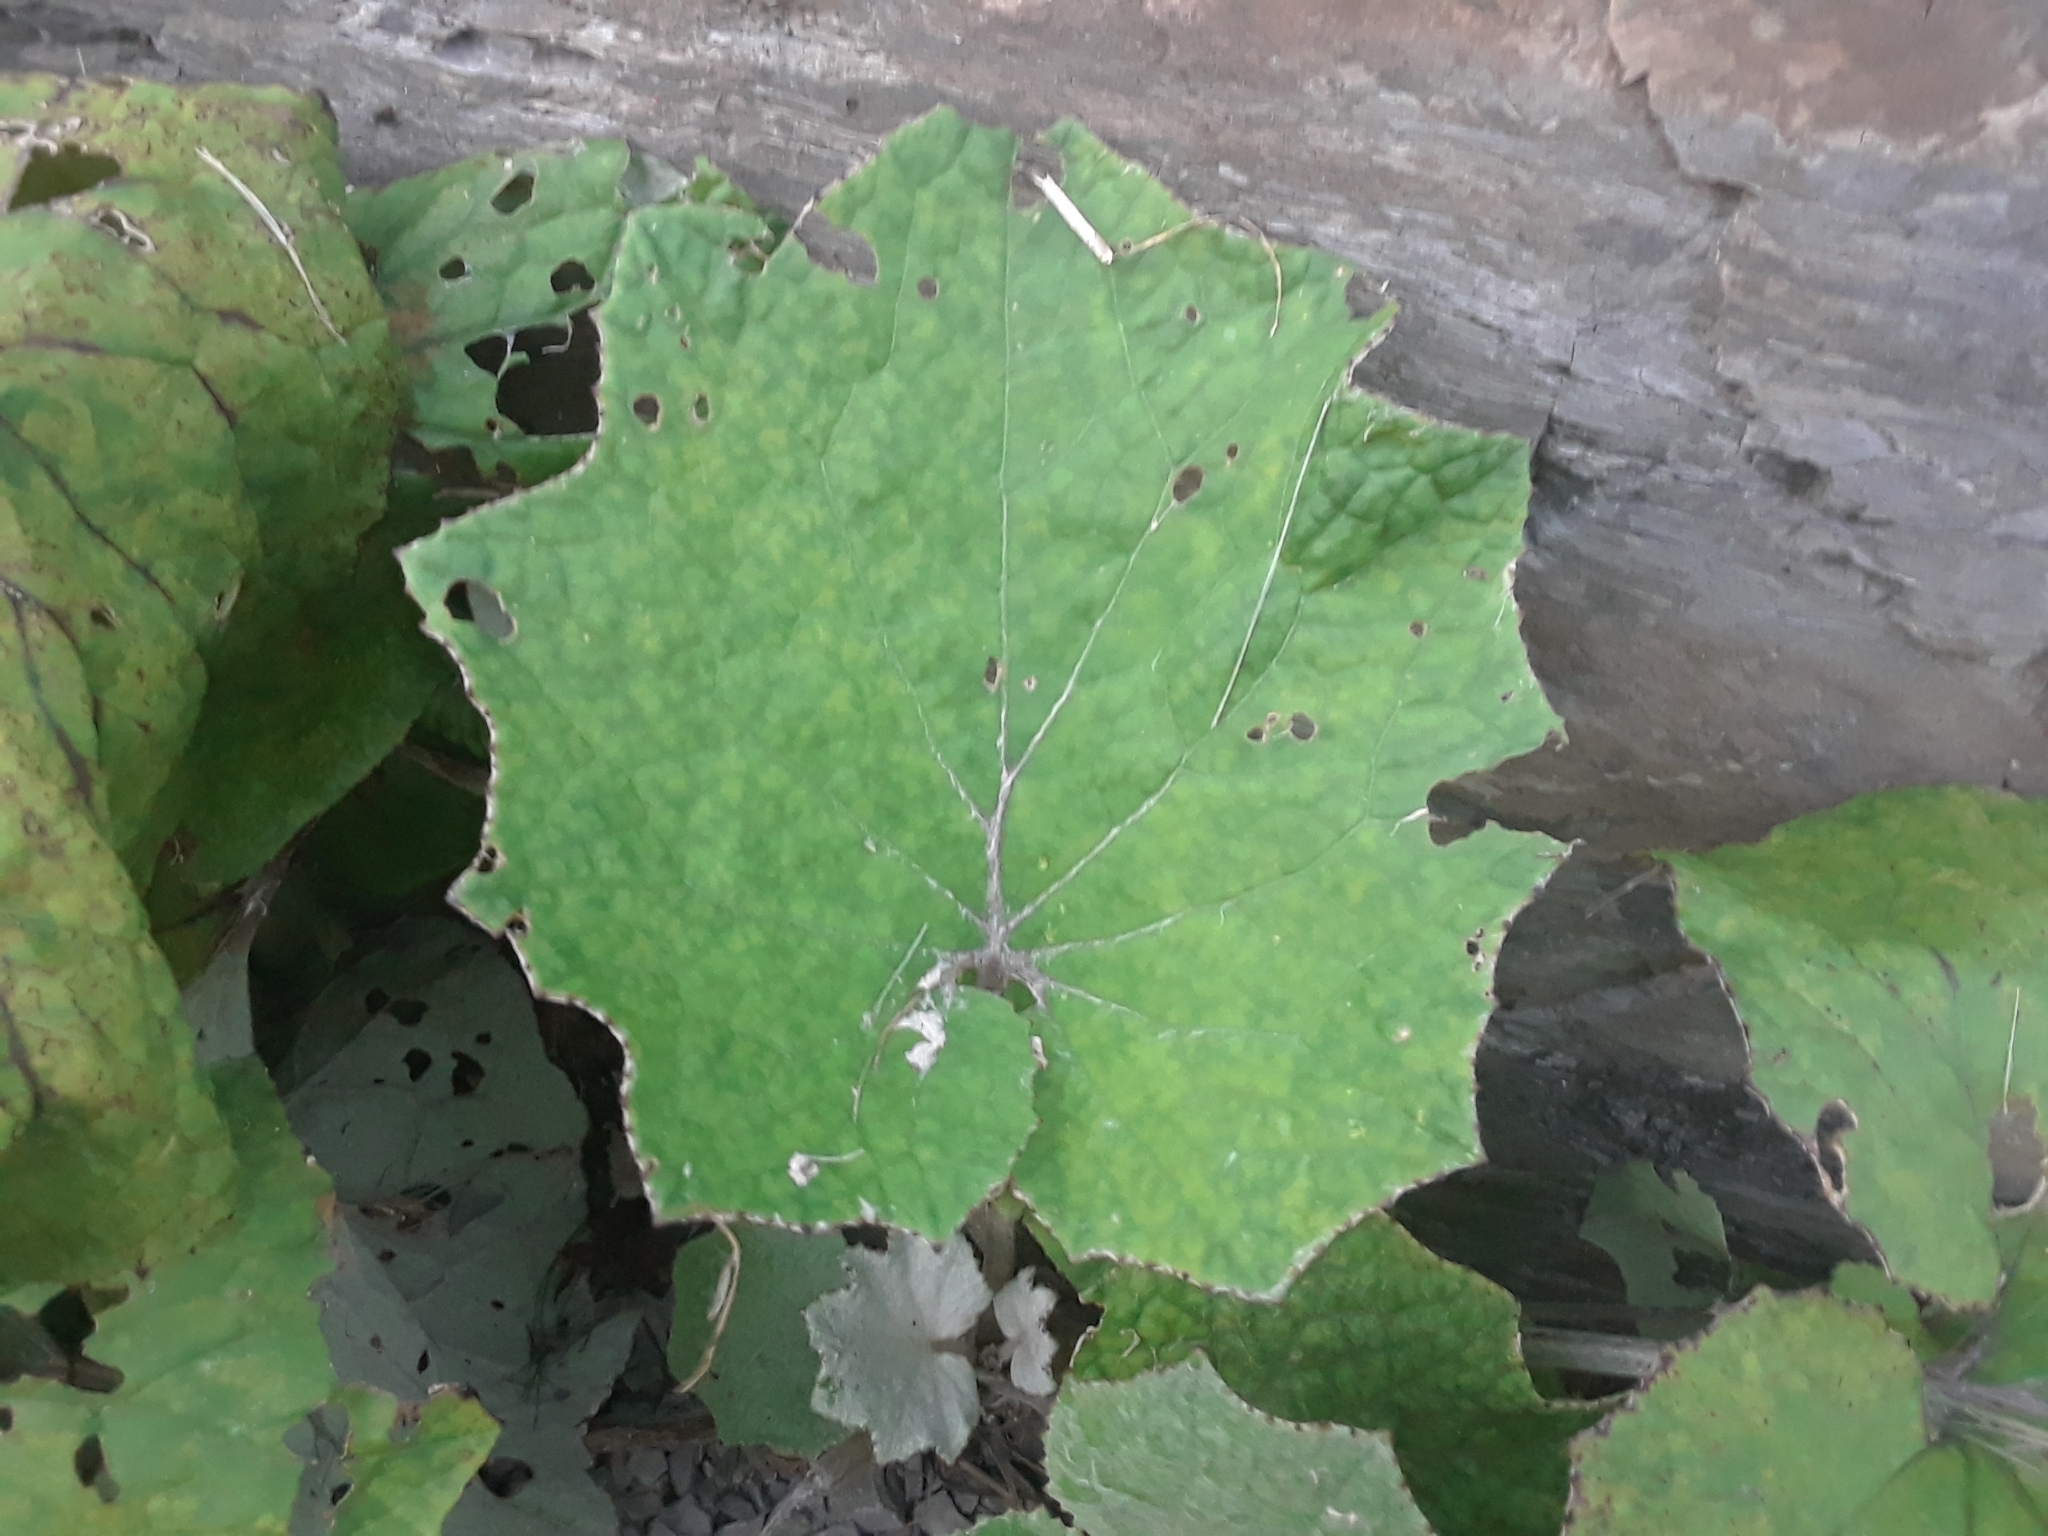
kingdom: Plantae
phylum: Tracheophyta
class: Magnoliopsida
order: Asterales
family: Asteraceae
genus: Tussilago
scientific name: Tussilago farfara
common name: Coltsfoot
